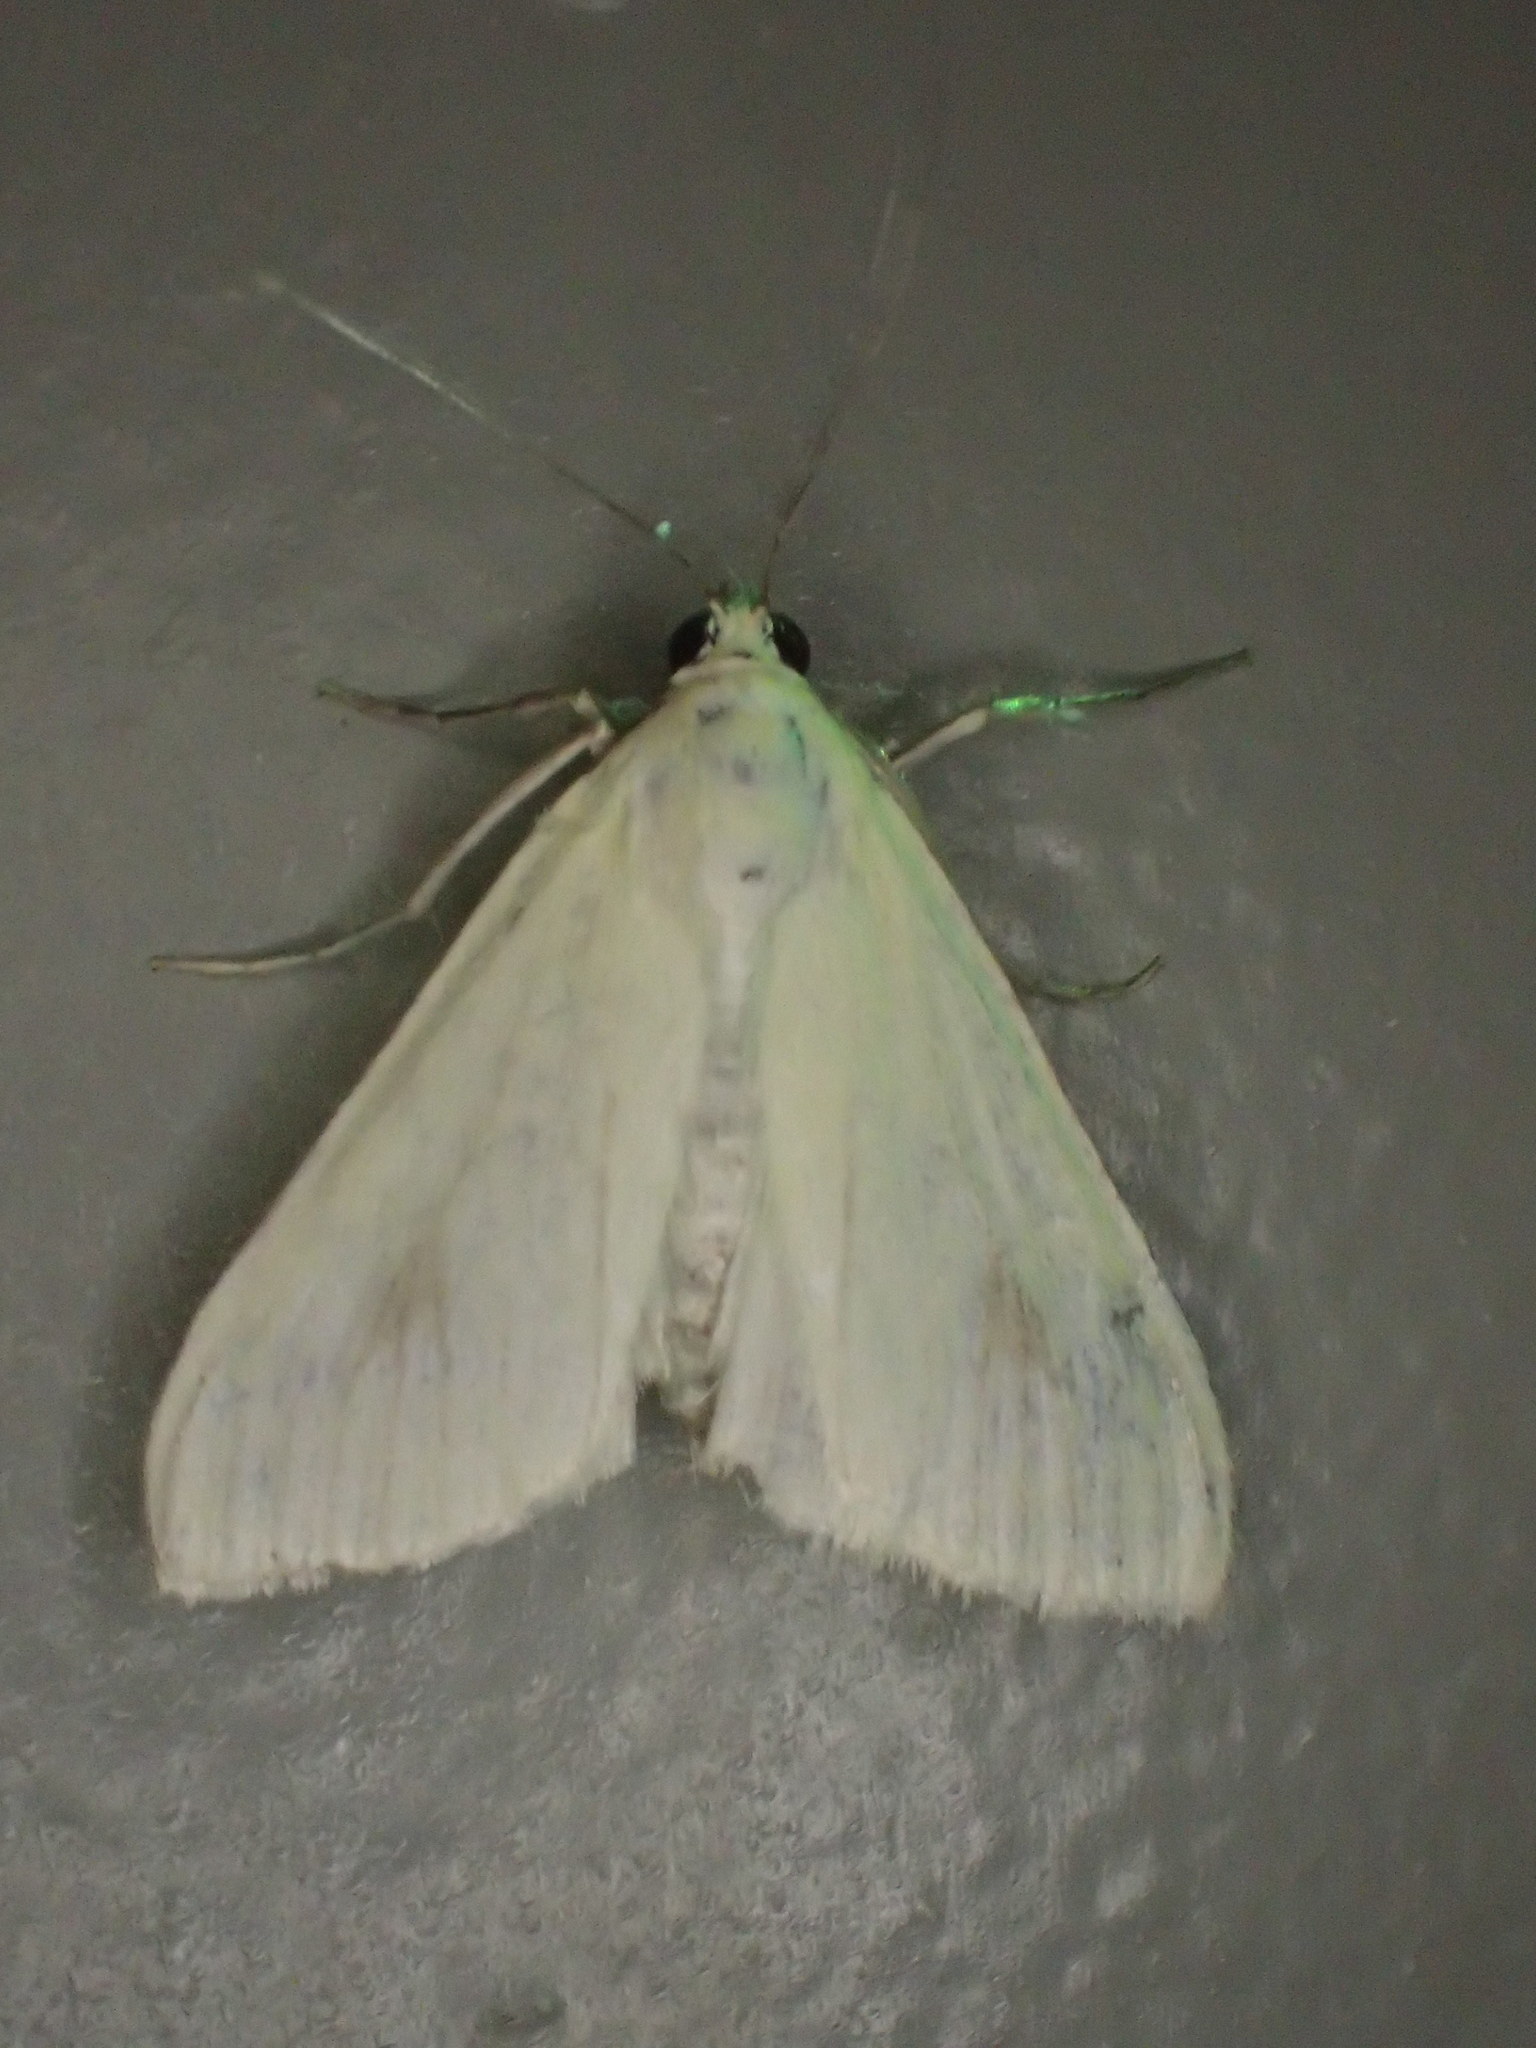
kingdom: Animalia
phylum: Arthropoda
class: Insecta
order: Lepidoptera
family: Crambidae
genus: Sitochroa
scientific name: Sitochroa palealis
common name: Greenish-yellow sitochroa moth
